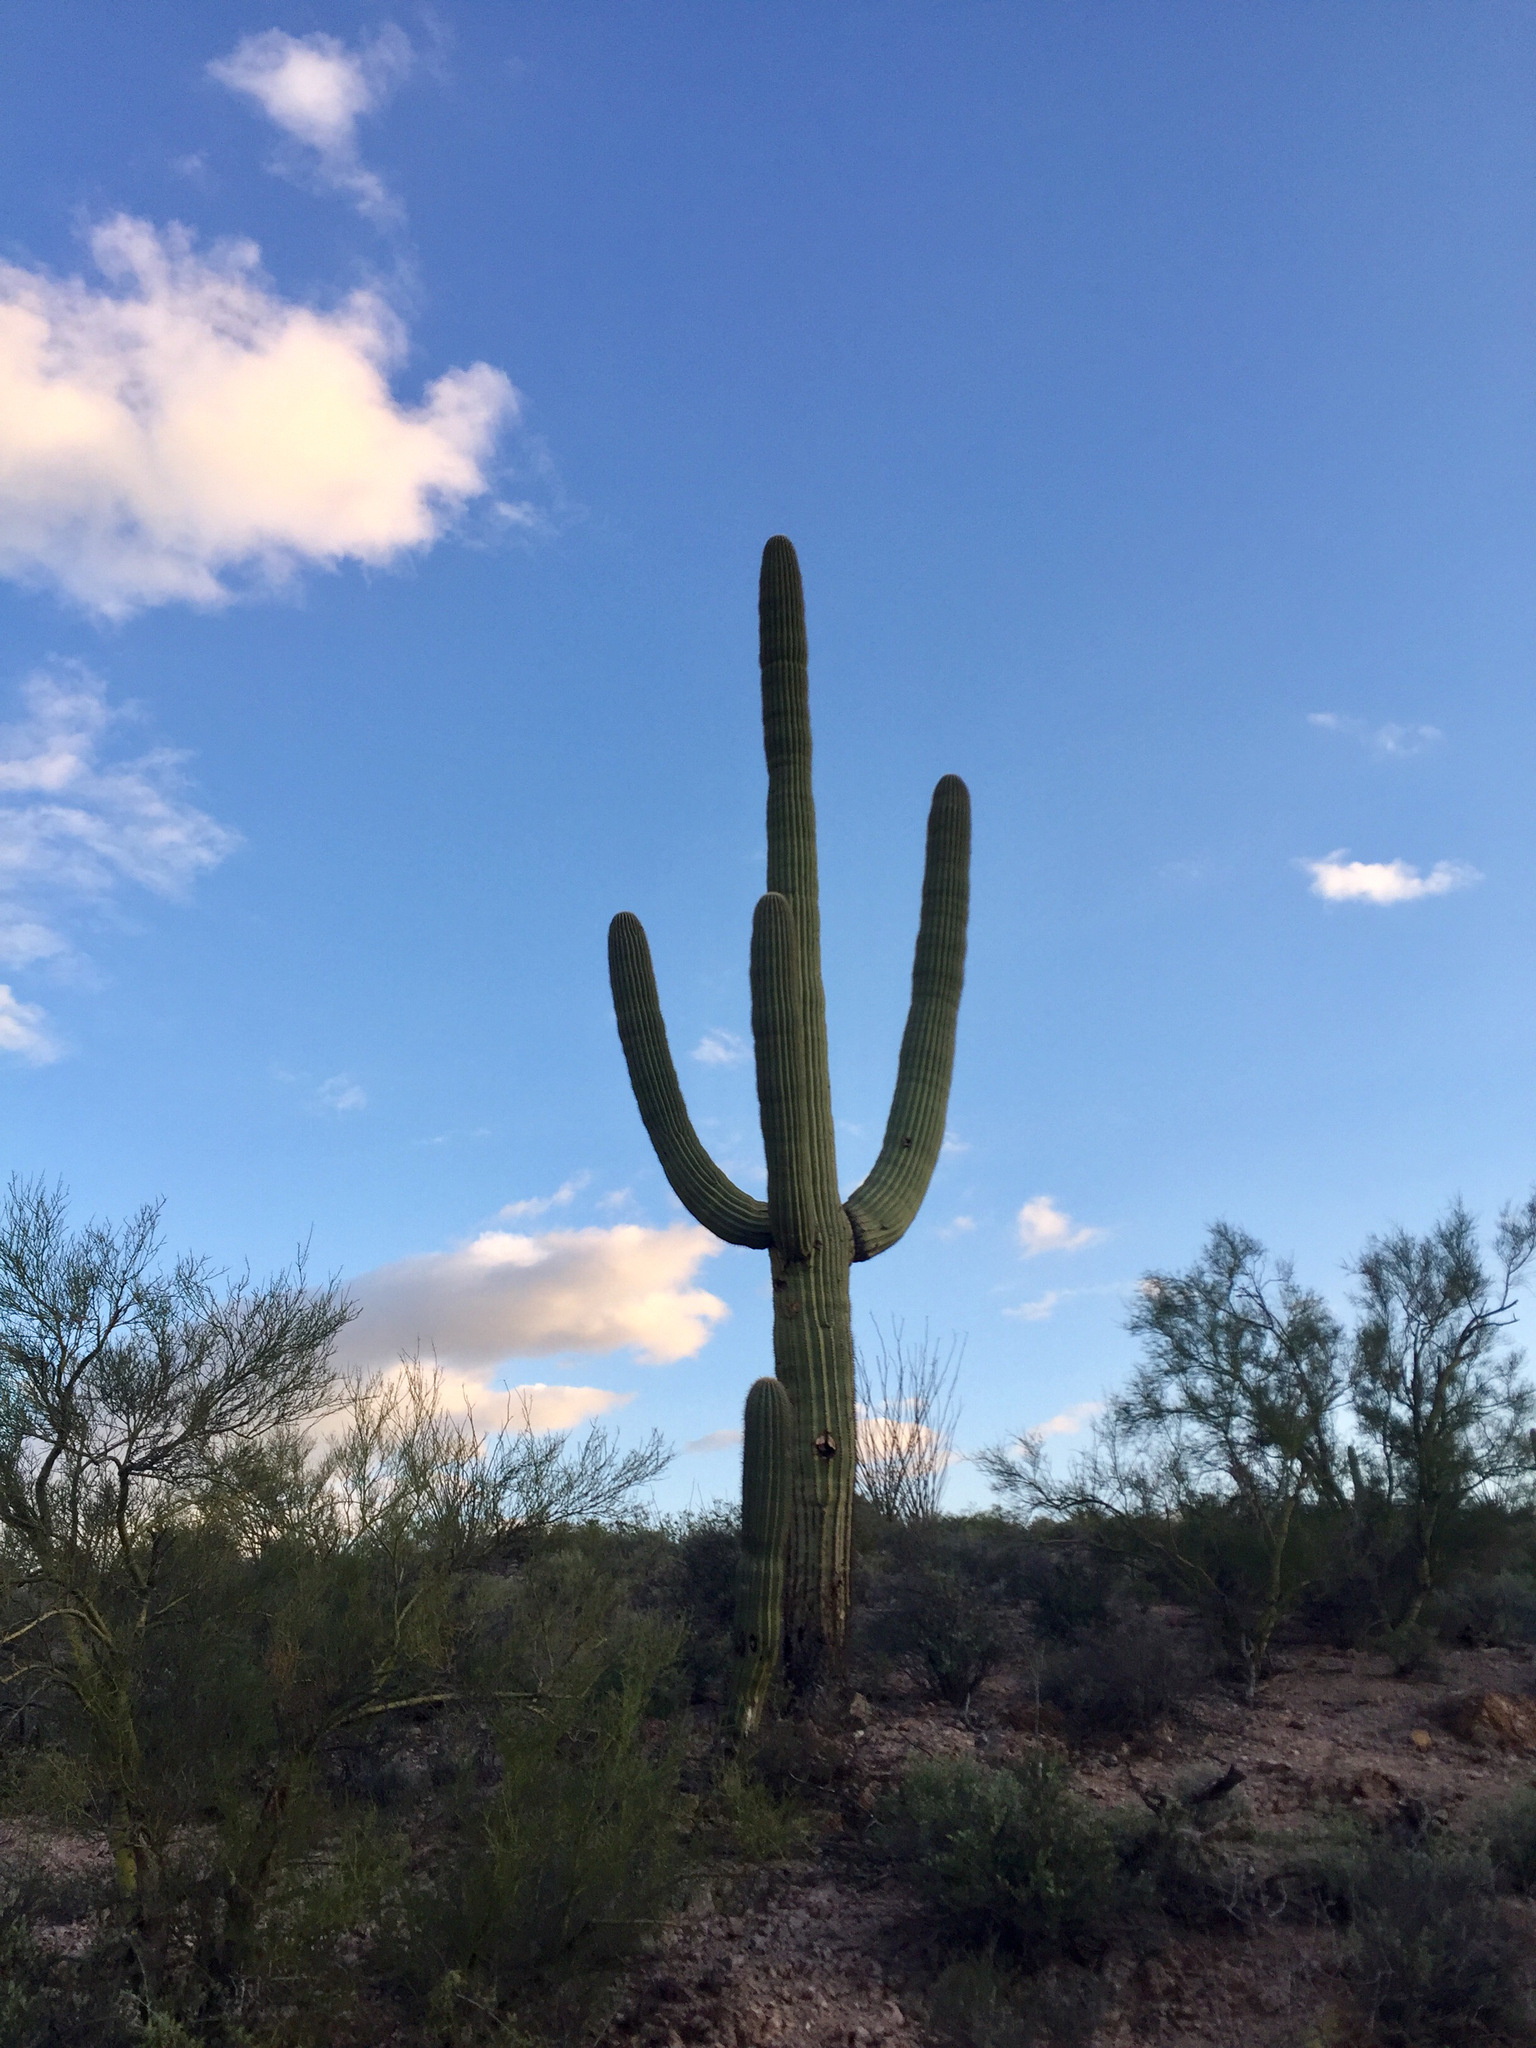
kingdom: Plantae
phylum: Tracheophyta
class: Magnoliopsida
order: Caryophyllales
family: Cactaceae
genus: Carnegiea
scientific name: Carnegiea gigantea
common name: Saguaro
